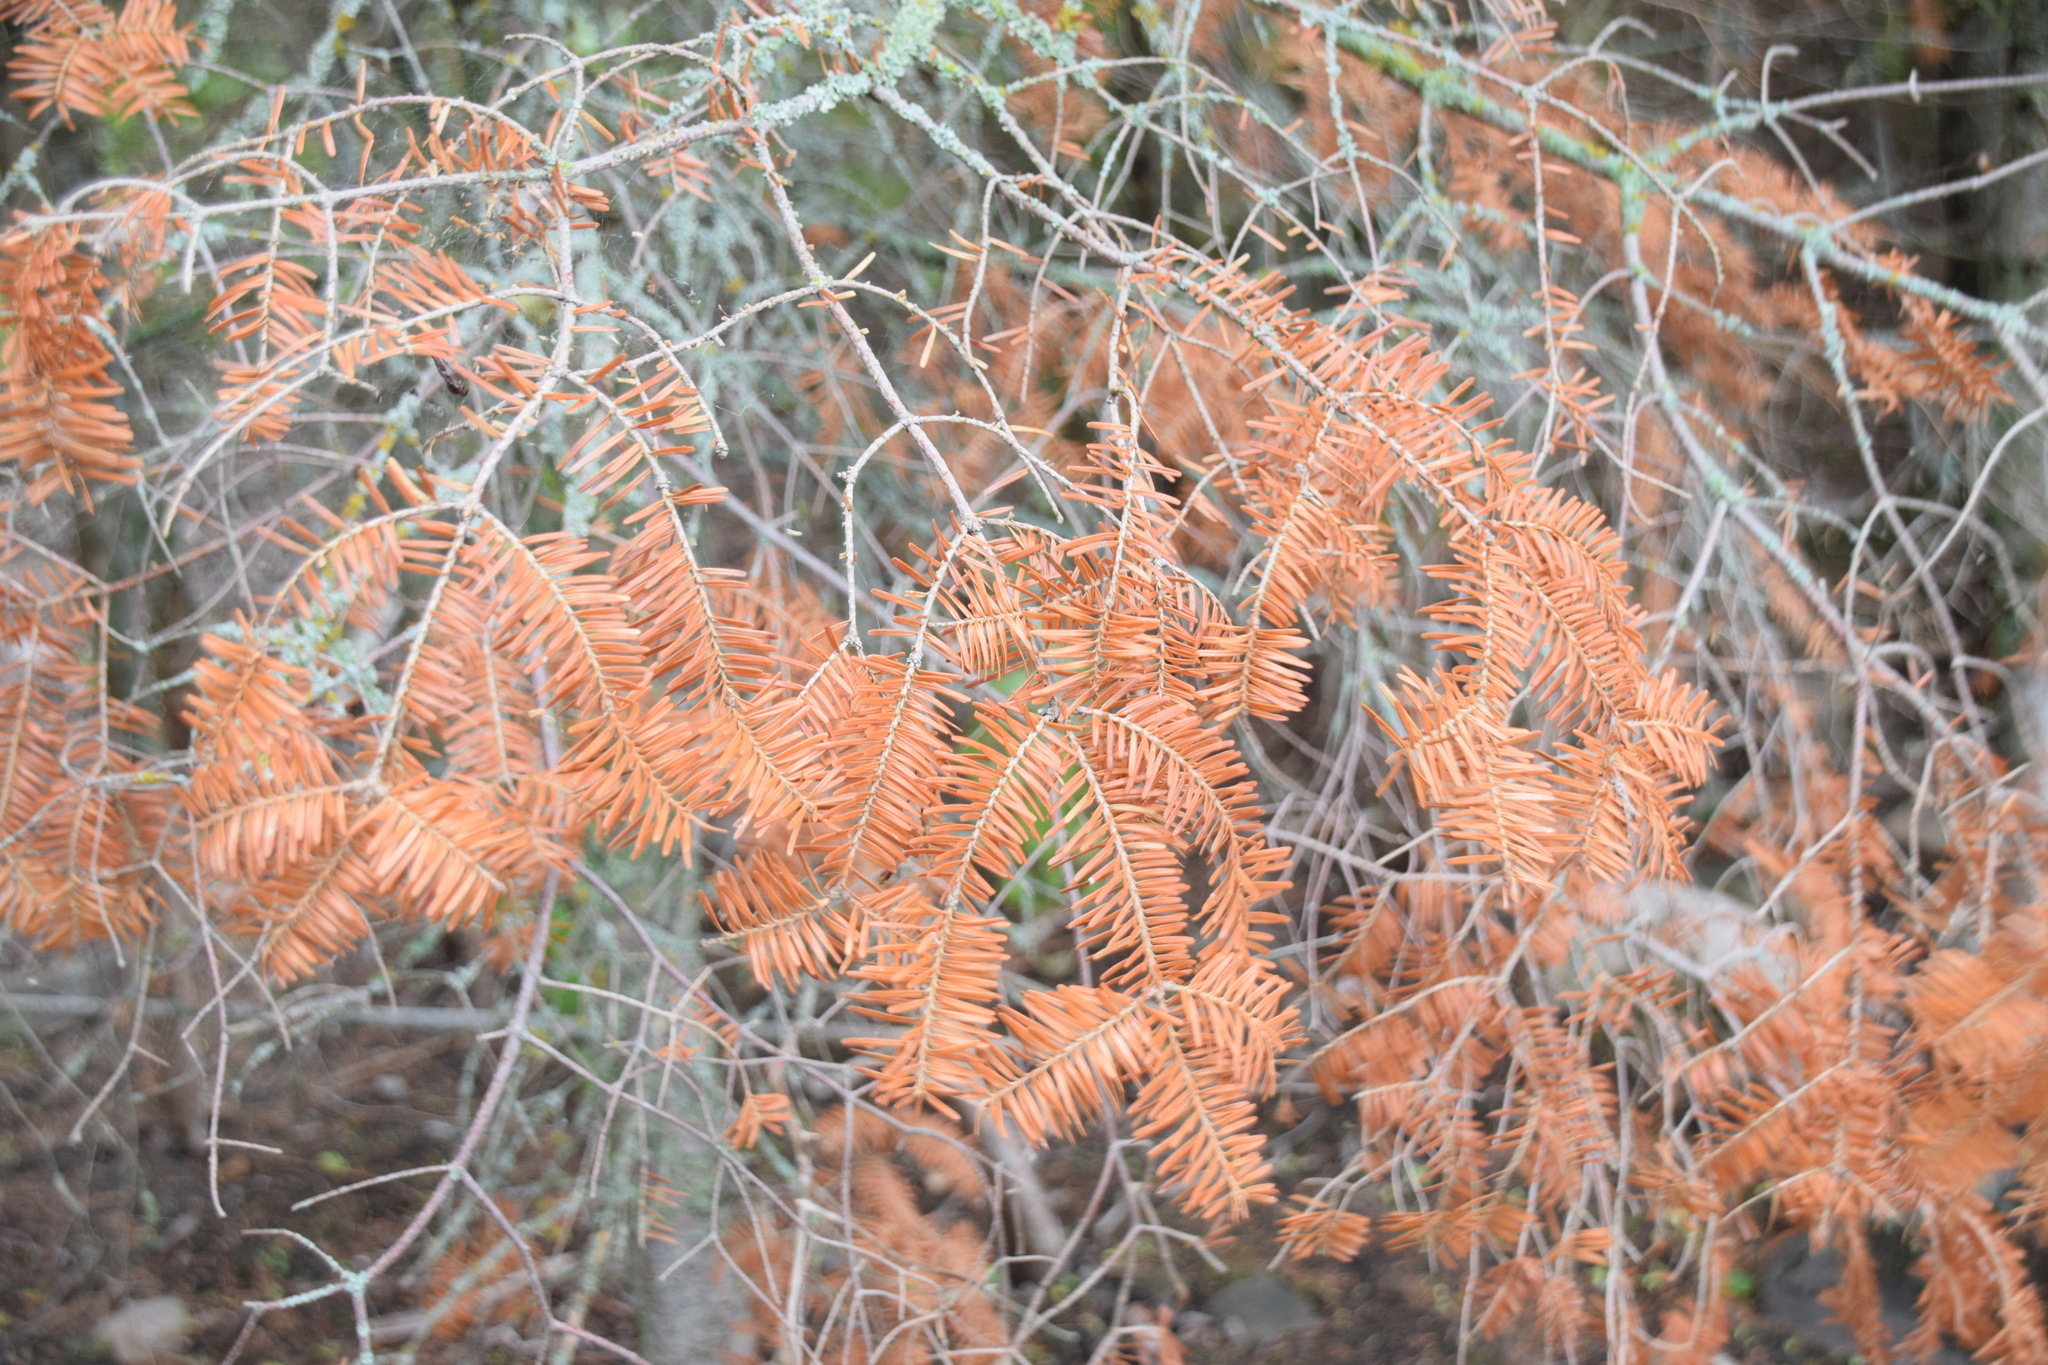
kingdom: Plantae
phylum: Tracheophyta
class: Pinopsida
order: Pinales
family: Pinaceae
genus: Abies
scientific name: Abies balsamea
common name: Balsam fir
